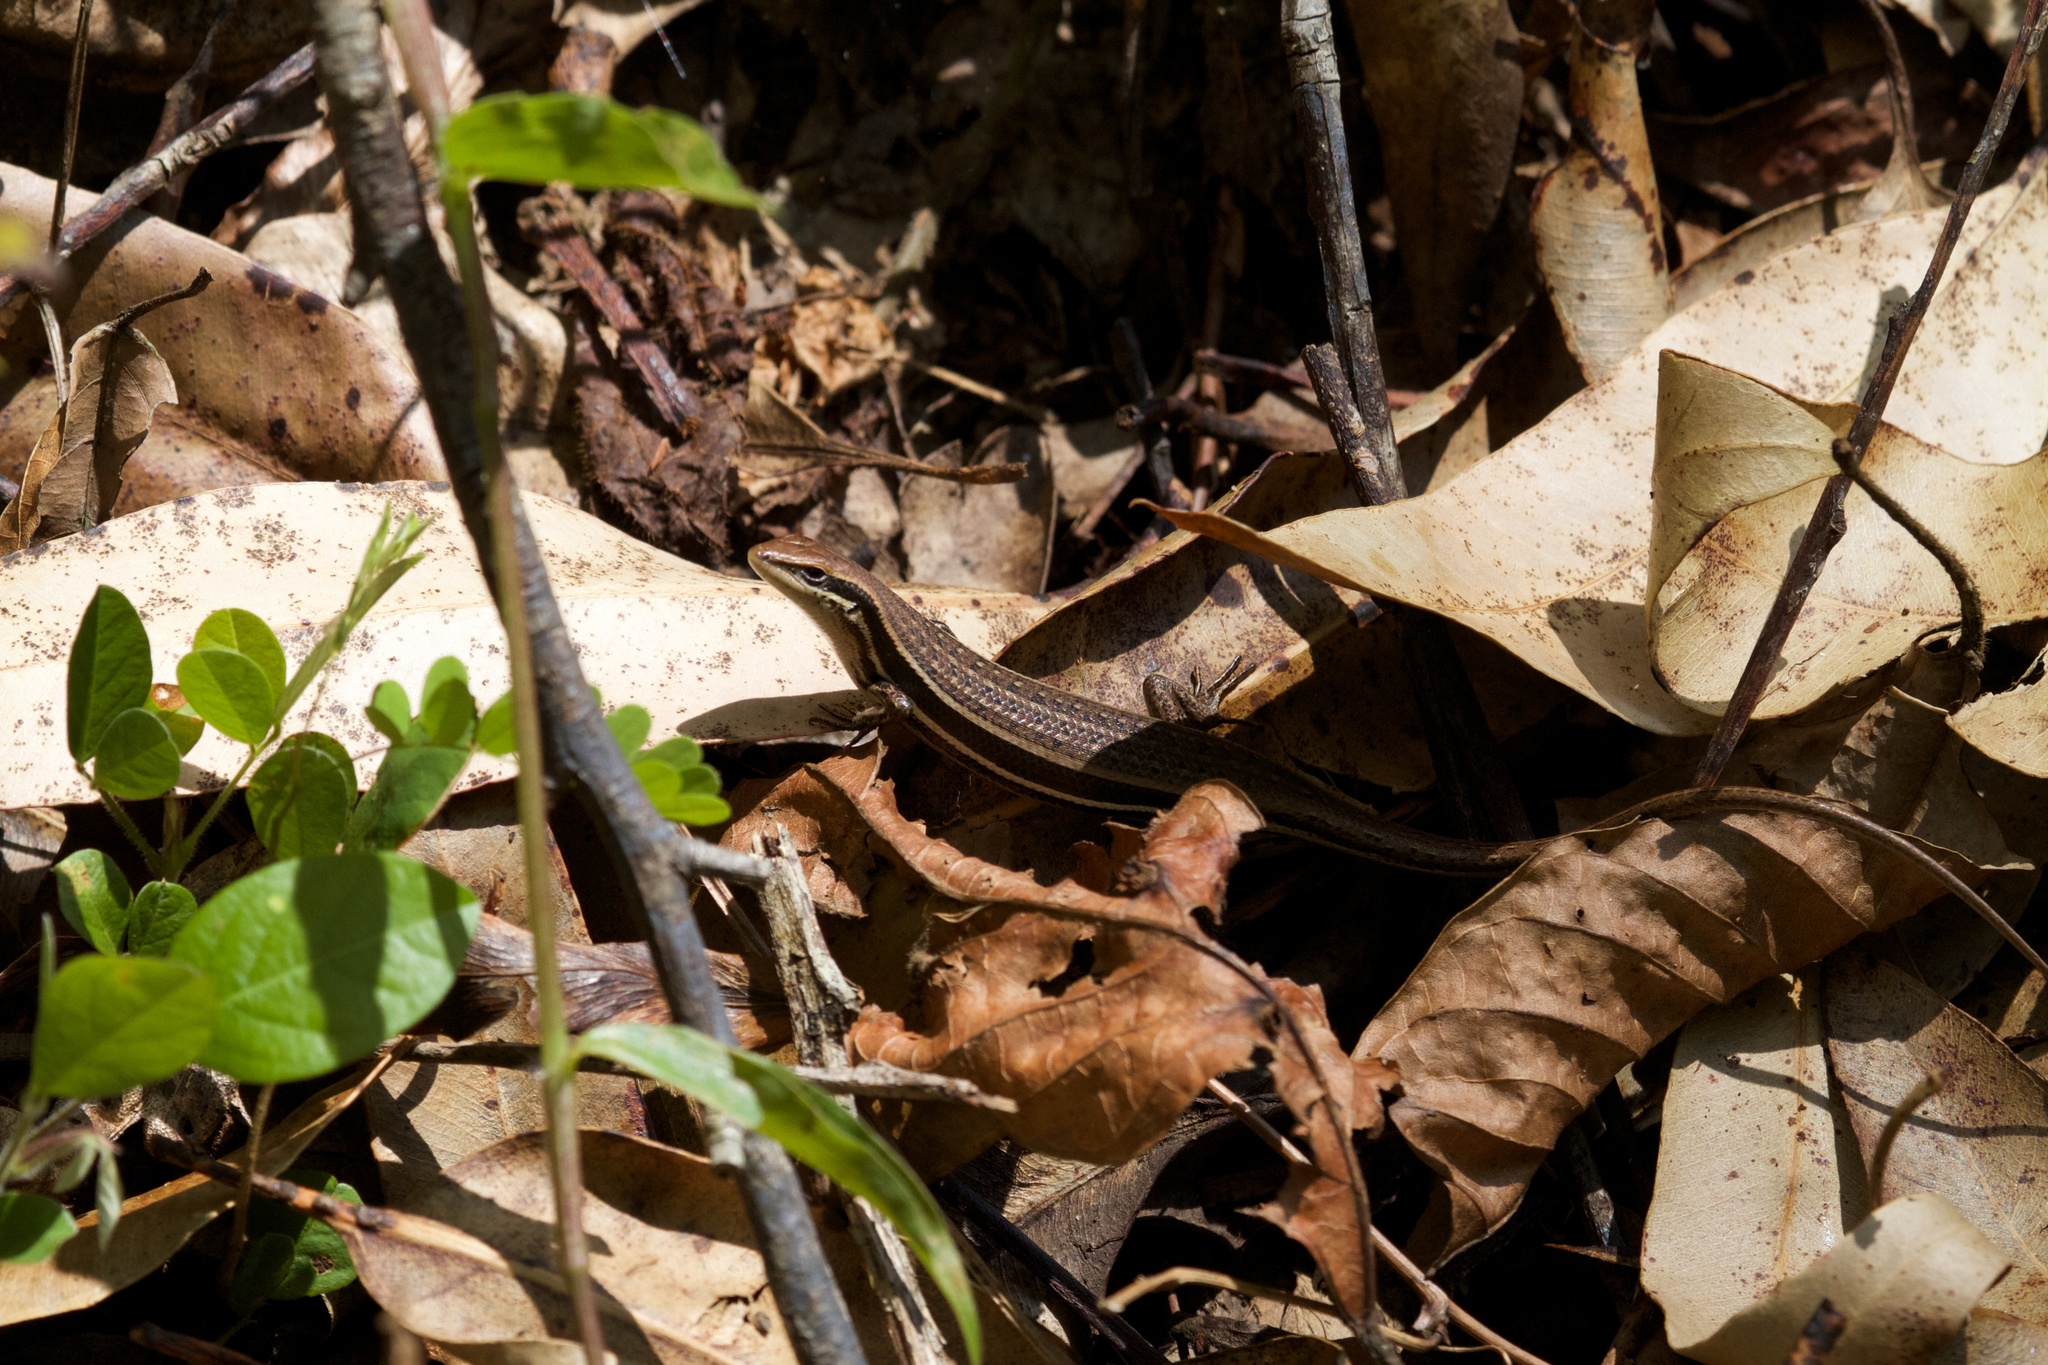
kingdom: Animalia
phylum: Chordata
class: Squamata
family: Scincidae
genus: Trachylepis
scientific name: Trachylepis gravenhorstii
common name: Gravenhorst's mabuya
